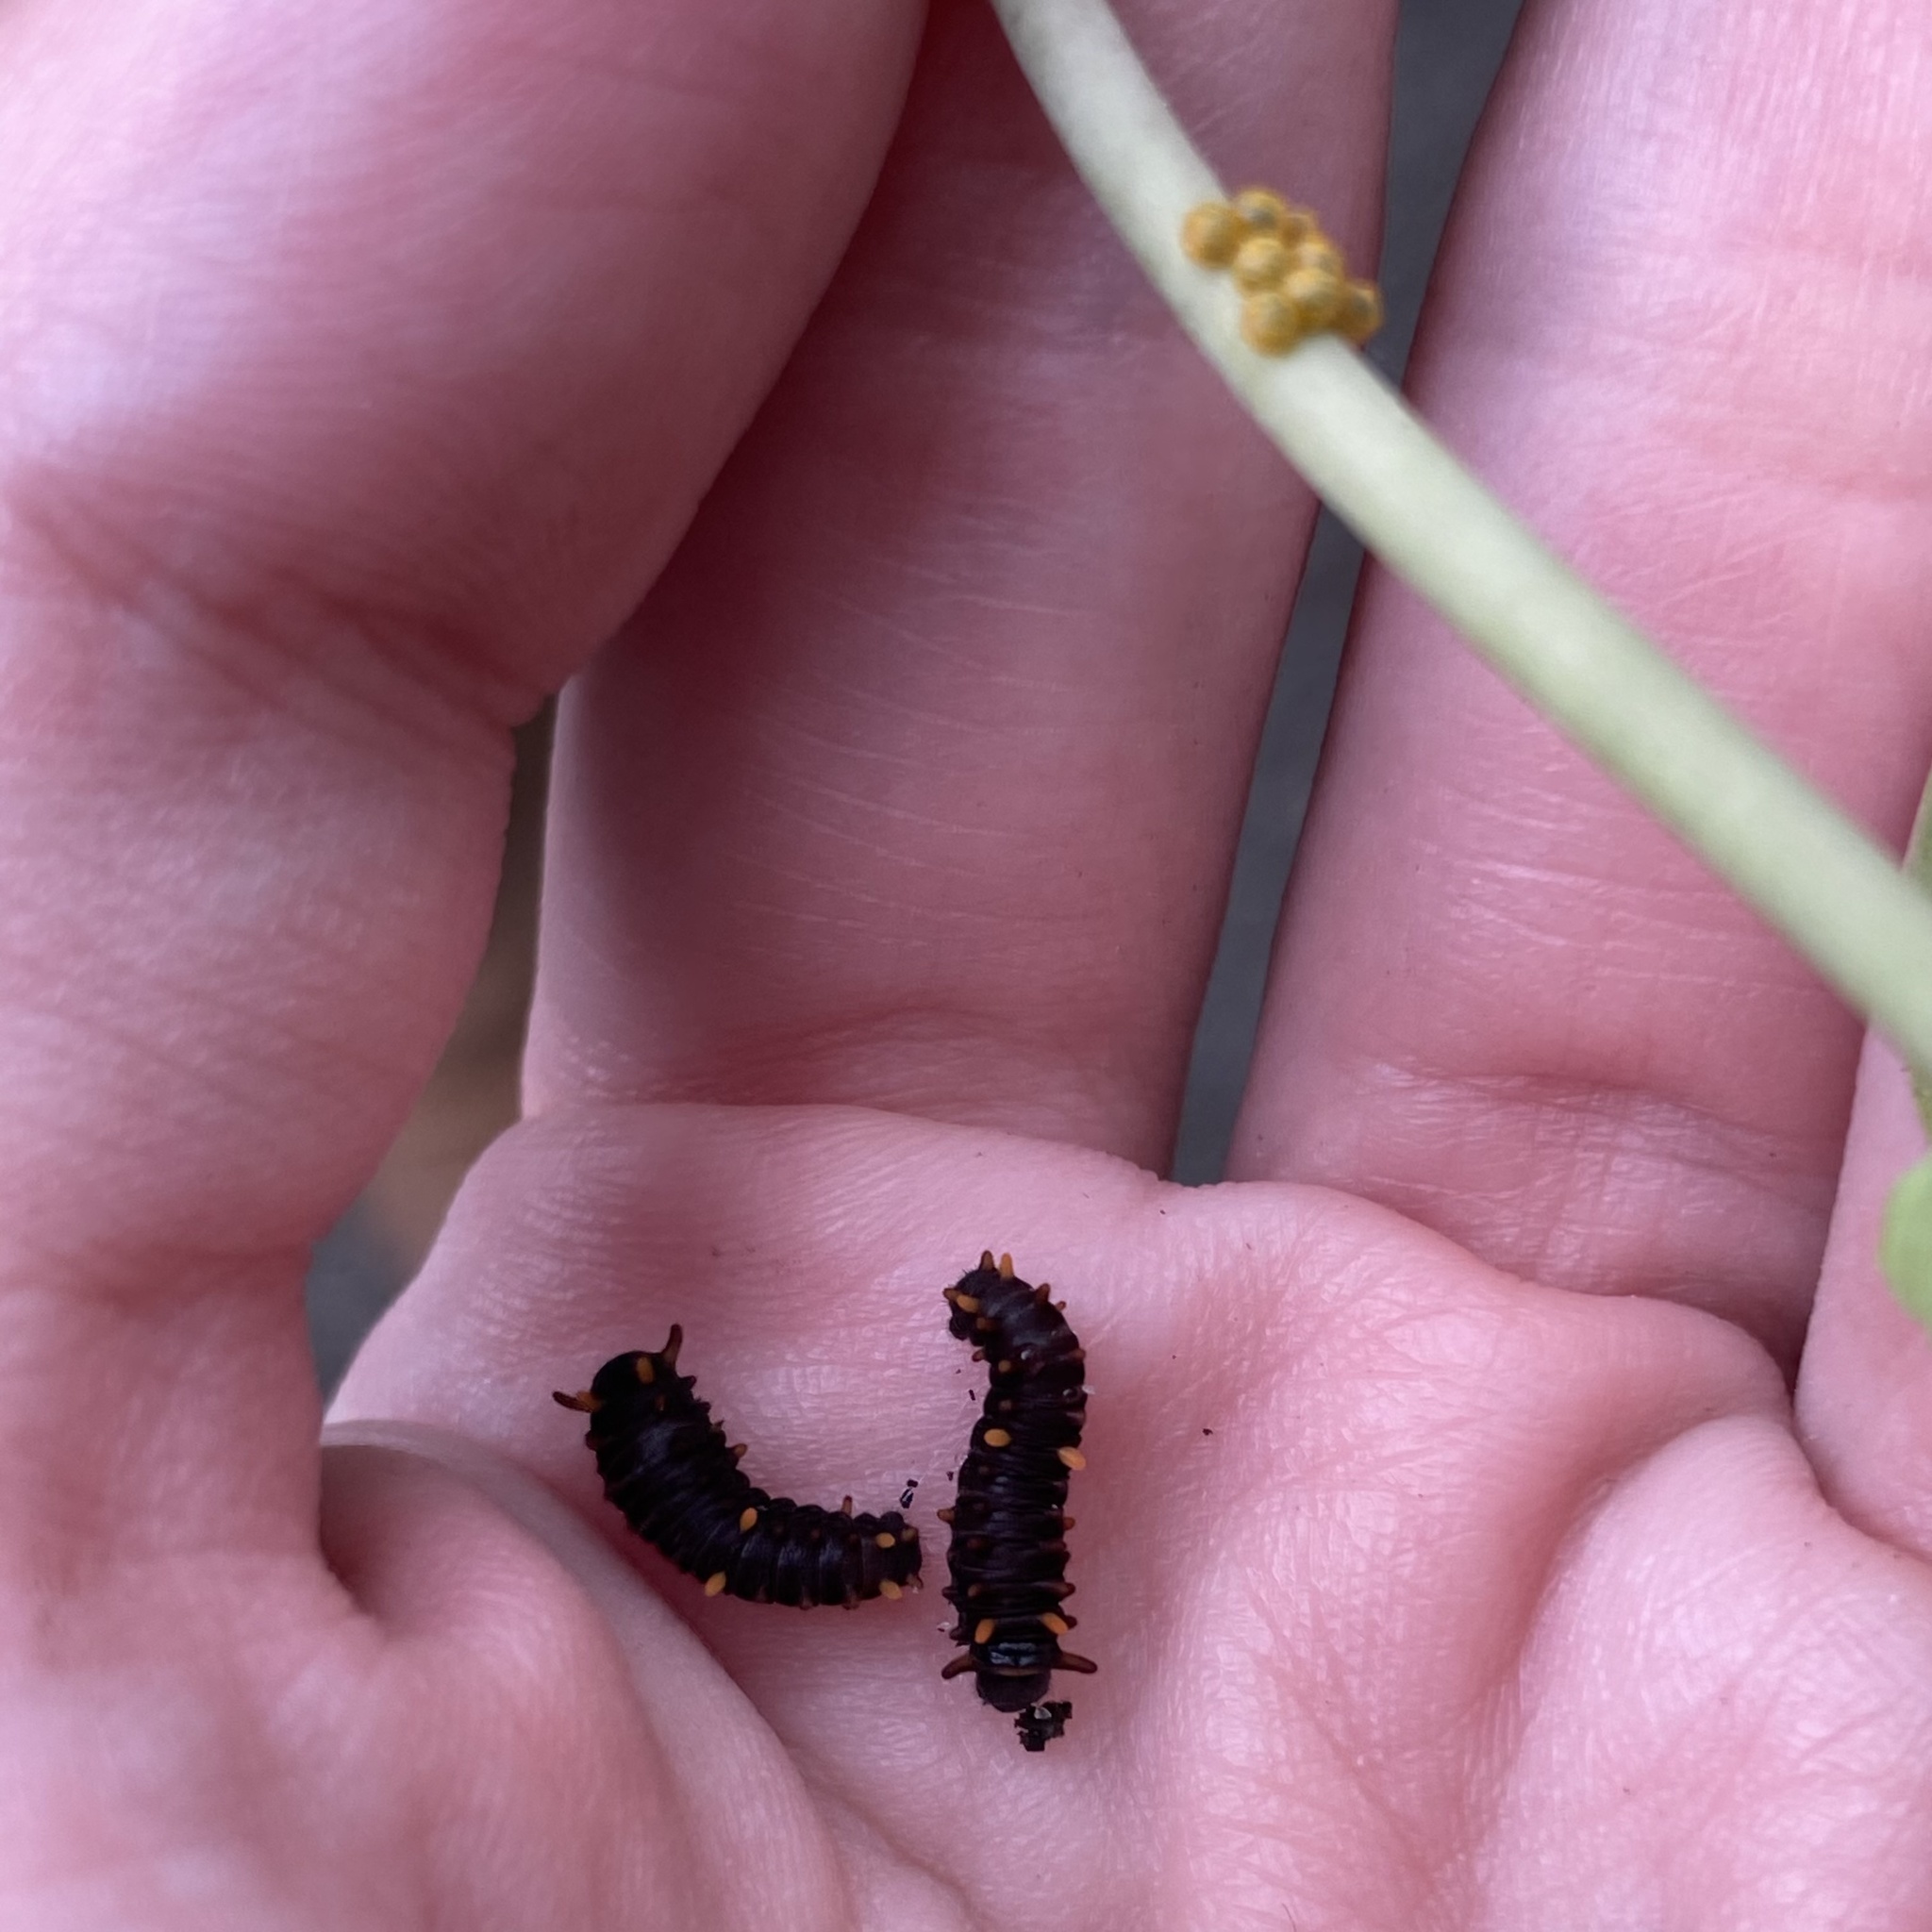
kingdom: Animalia
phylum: Arthropoda
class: Insecta
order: Lepidoptera
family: Papilionidae
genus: Battus
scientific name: Battus polydamas
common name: Polydamas swallowtail
